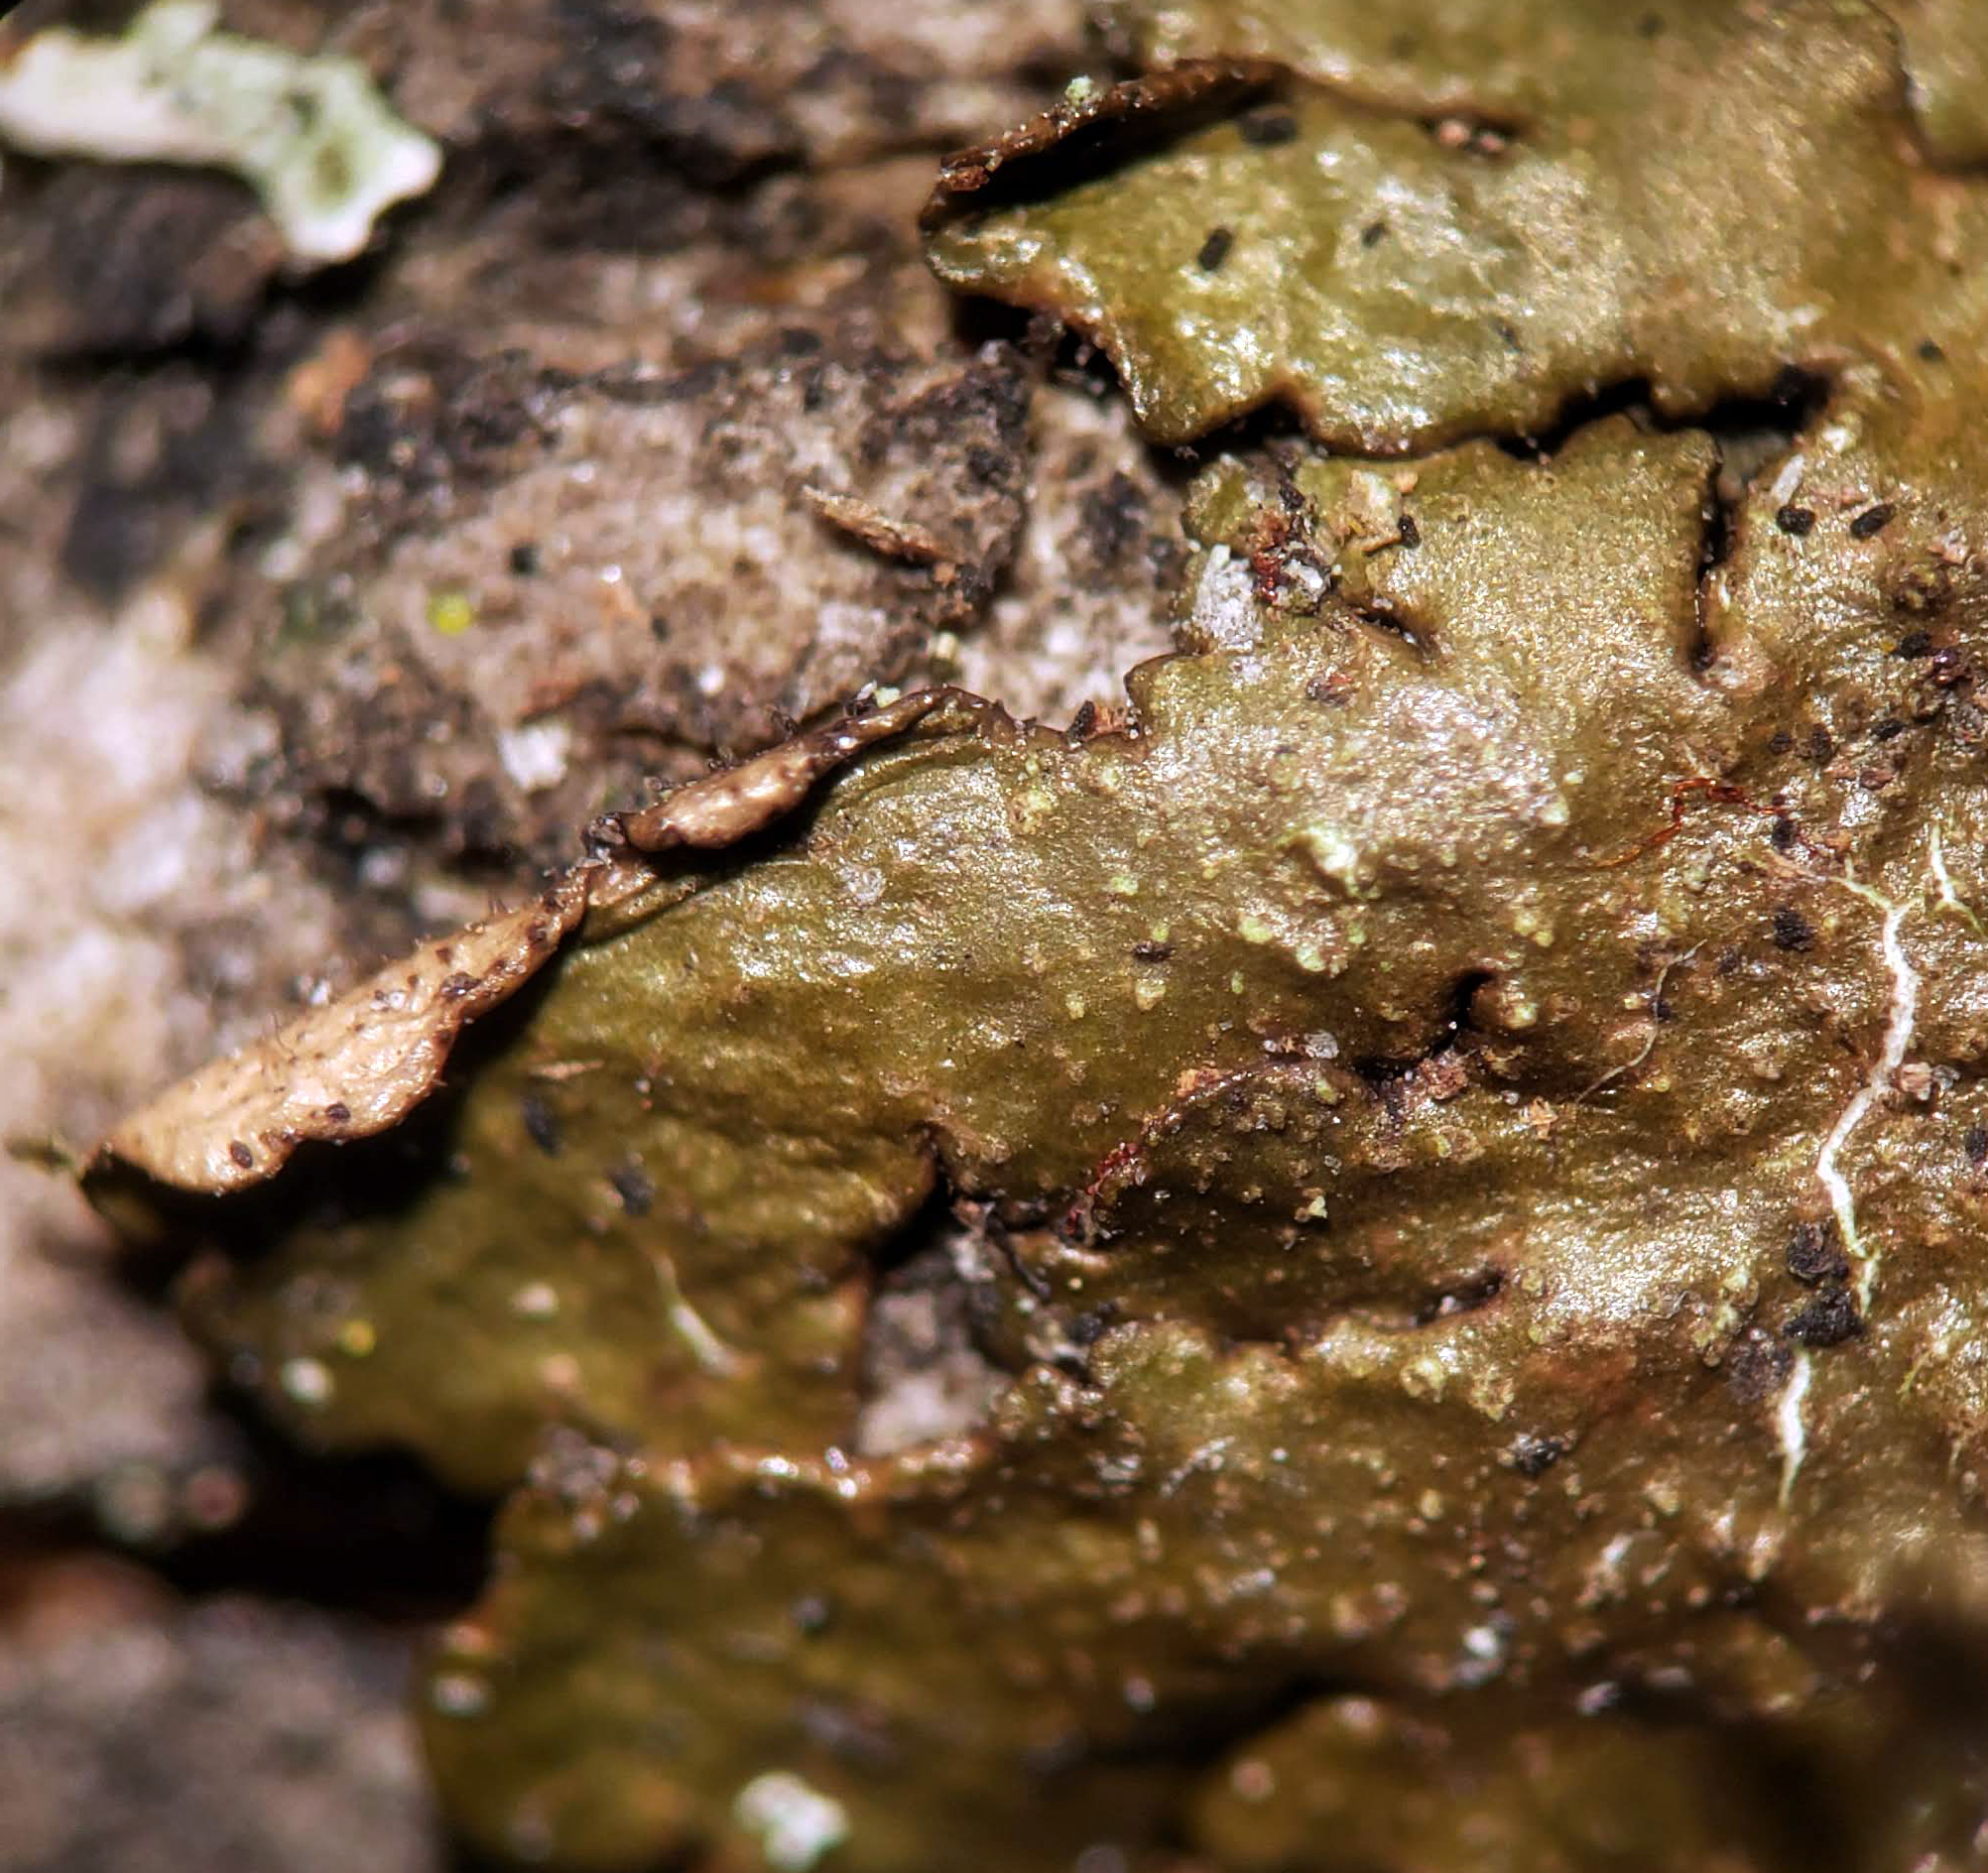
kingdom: Fungi
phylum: Ascomycota
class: Lecanoromycetes
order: Lecanorales
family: Parmeliaceae
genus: Melanelixia
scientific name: Melanelixia subaurifera
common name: Abraded camouflage lichen
